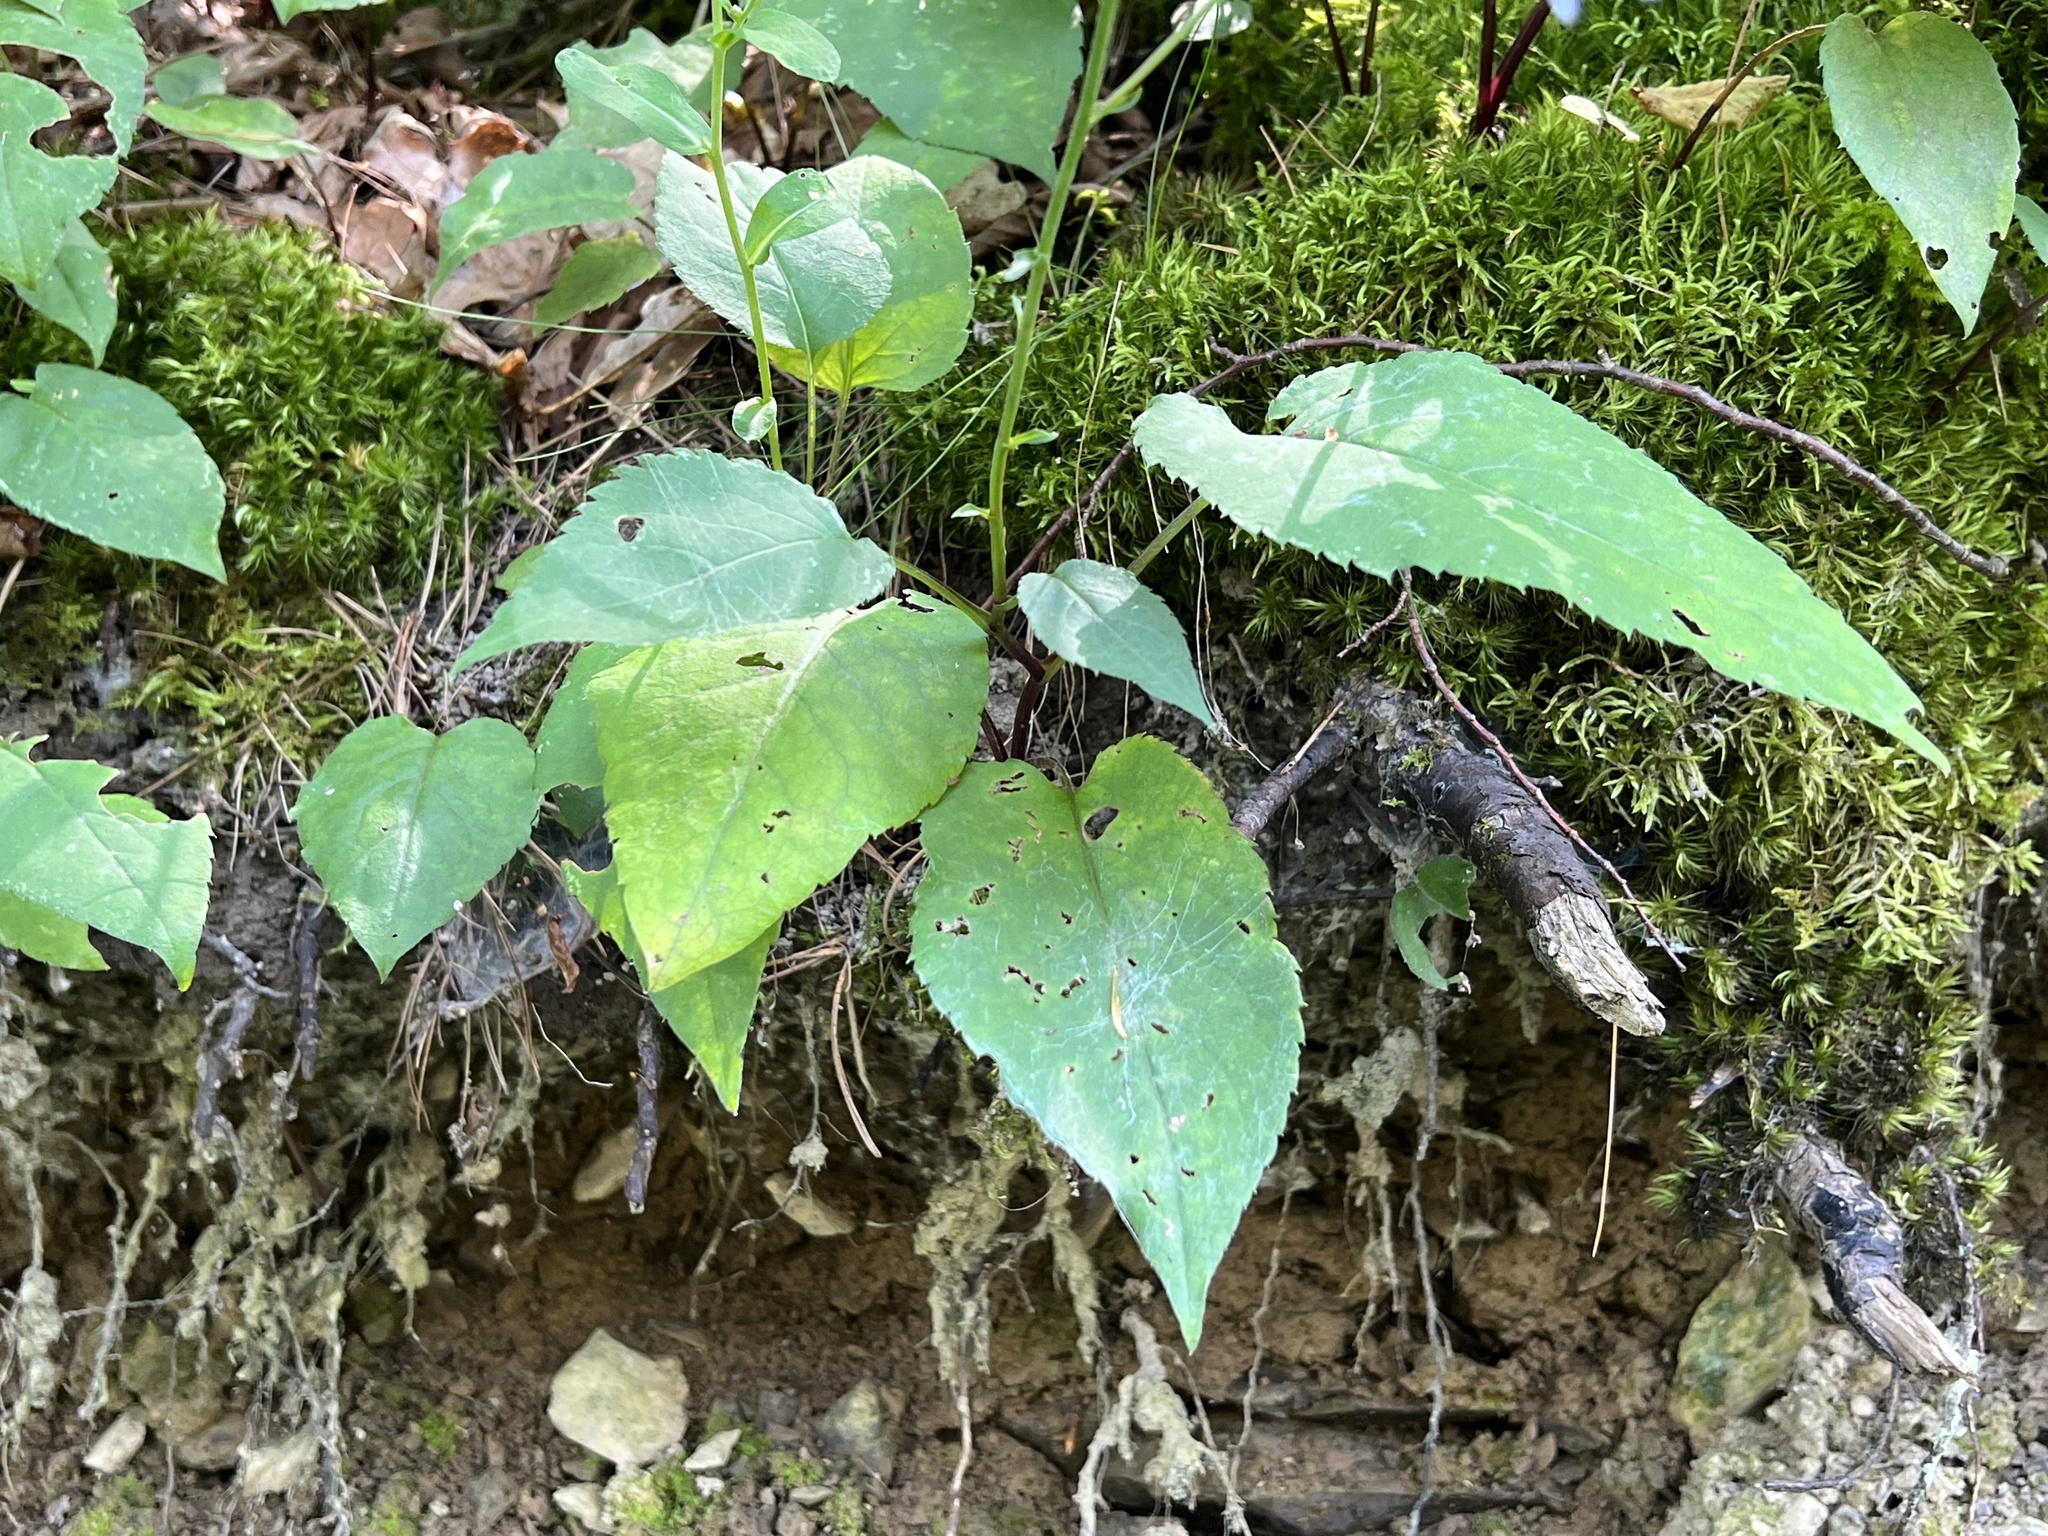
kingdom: Plantae
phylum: Tracheophyta
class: Magnoliopsida
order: Asterales
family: Asteraceae
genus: Eurybia
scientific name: Eurybia macrophylla
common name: Big-leaved aster
